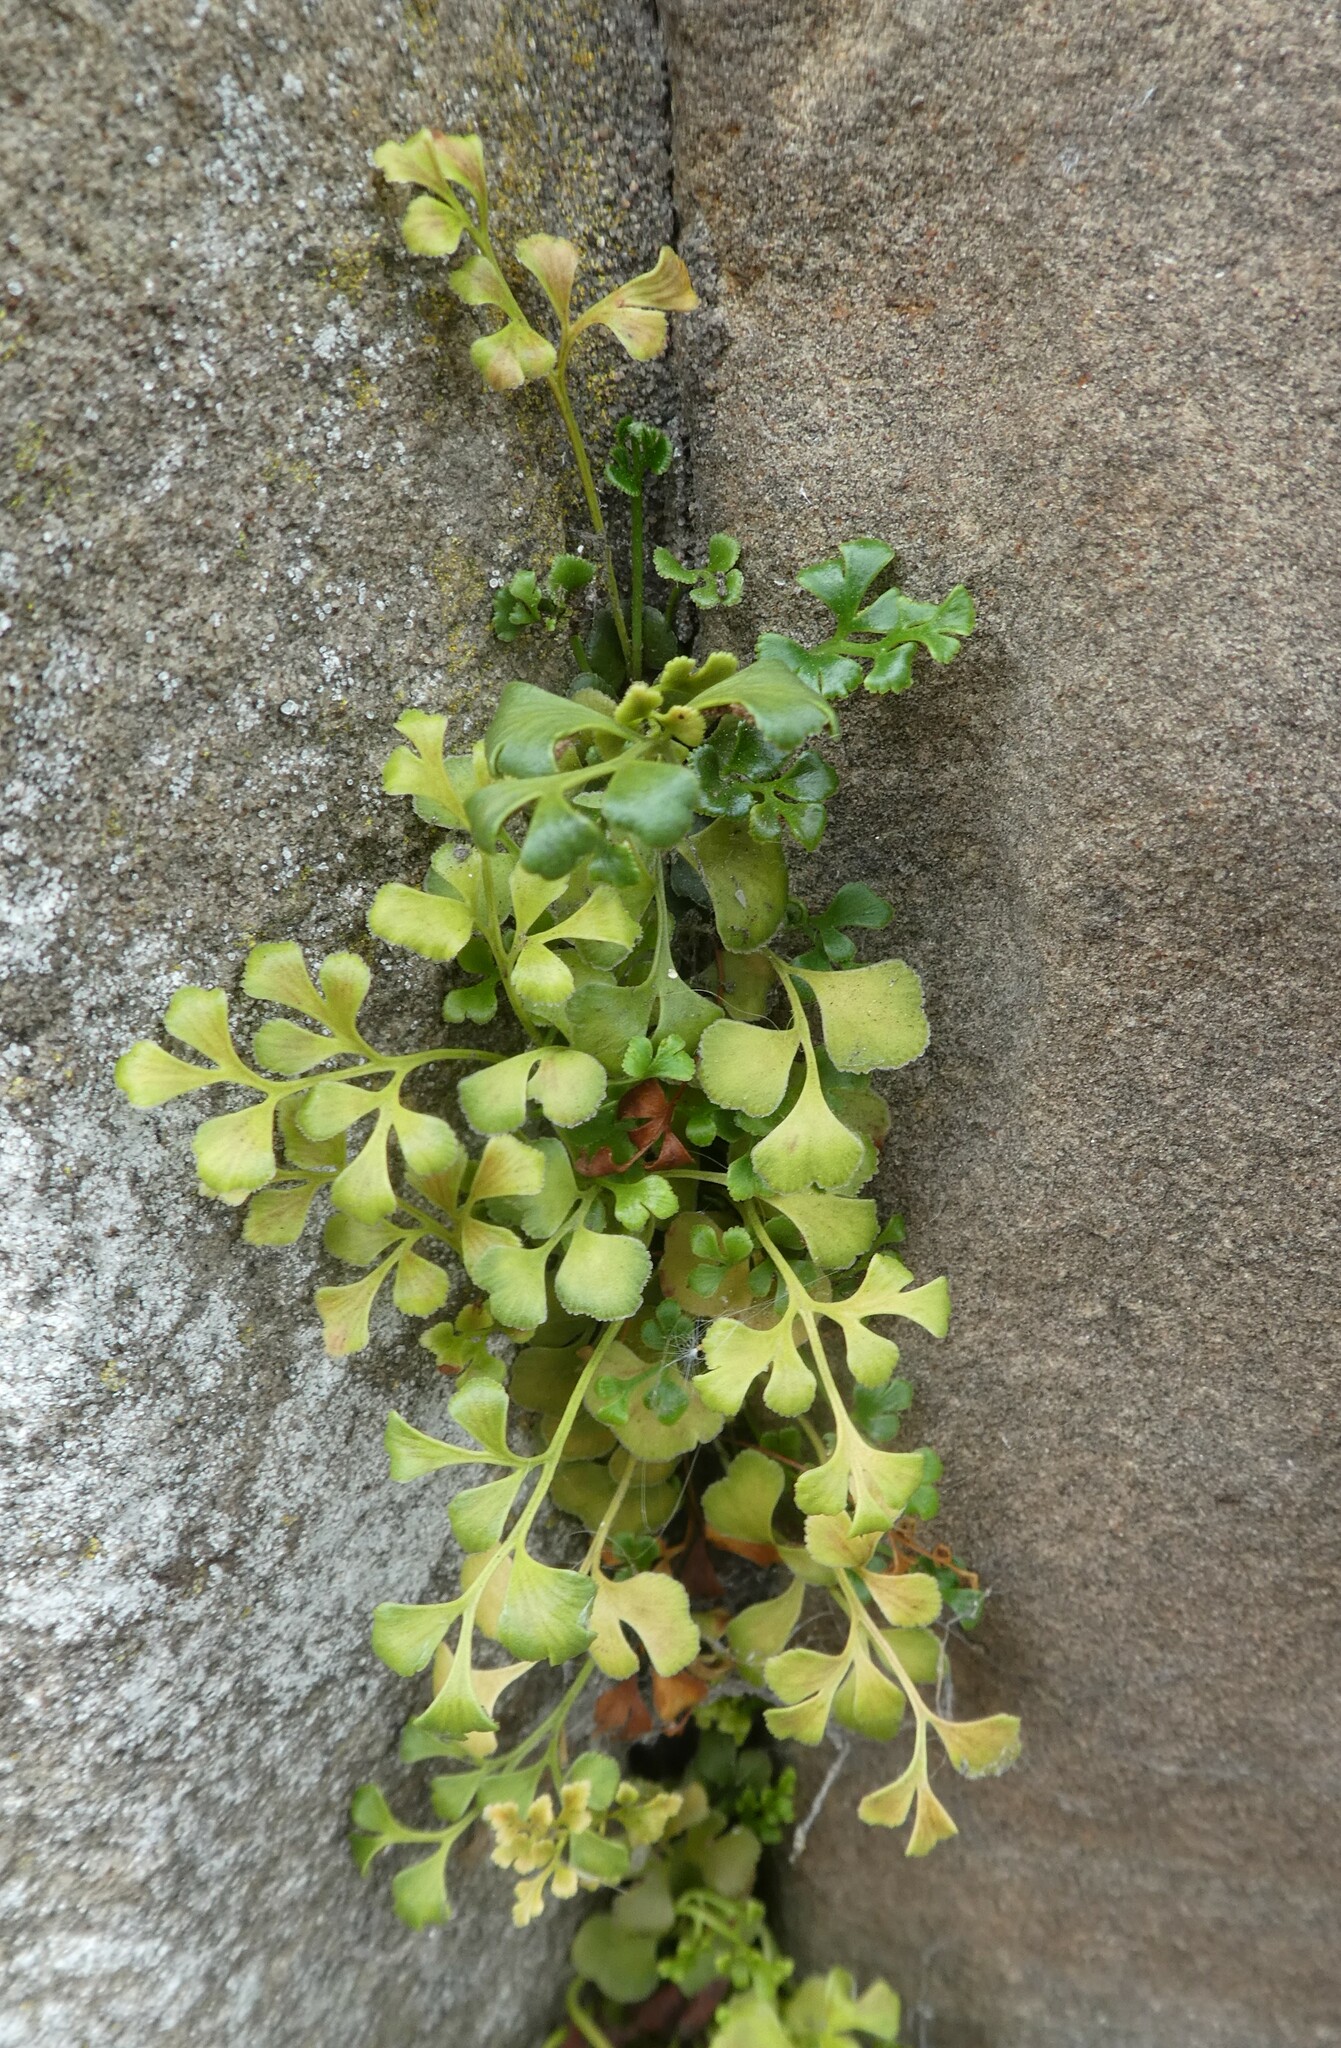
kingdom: Plantae
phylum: Tracheophyta
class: Polypodiopsida
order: Polypodiales
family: Aspleniaceae
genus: Asplenium
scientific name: Asplenium ruta-muraria
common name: Wall-rue
